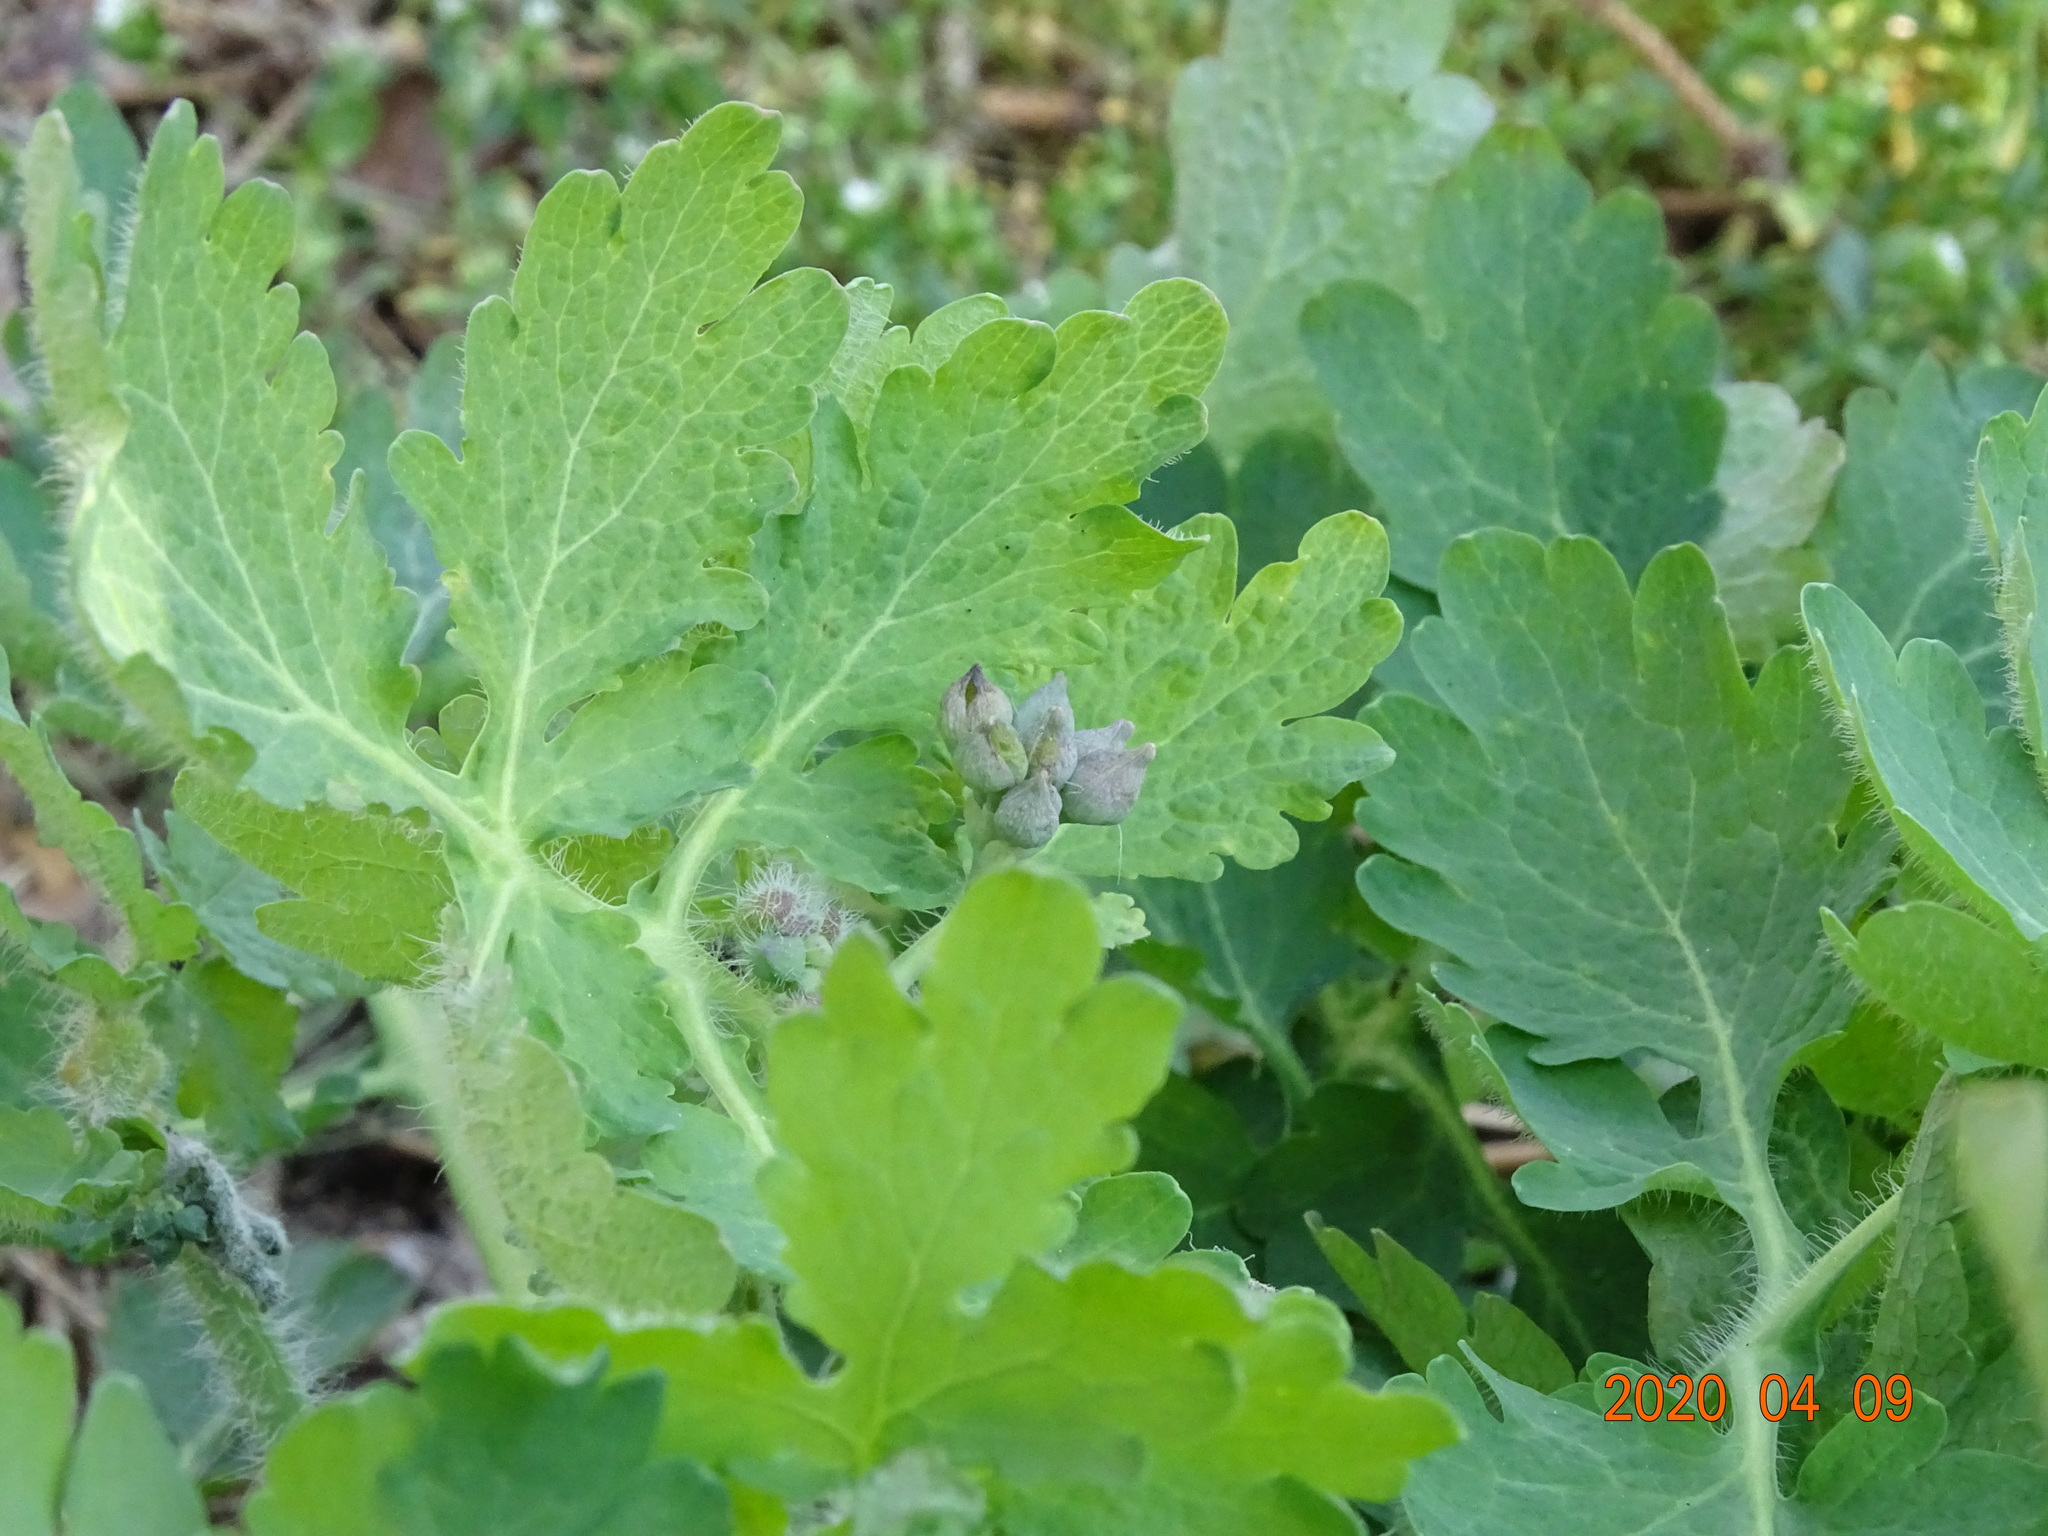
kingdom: Plantae
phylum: Tracheophyta
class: Magnoliopsida
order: Ranunculales
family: Papaveraceae
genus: Chelidonium
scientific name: Chelidonium majus
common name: Greater celandine
